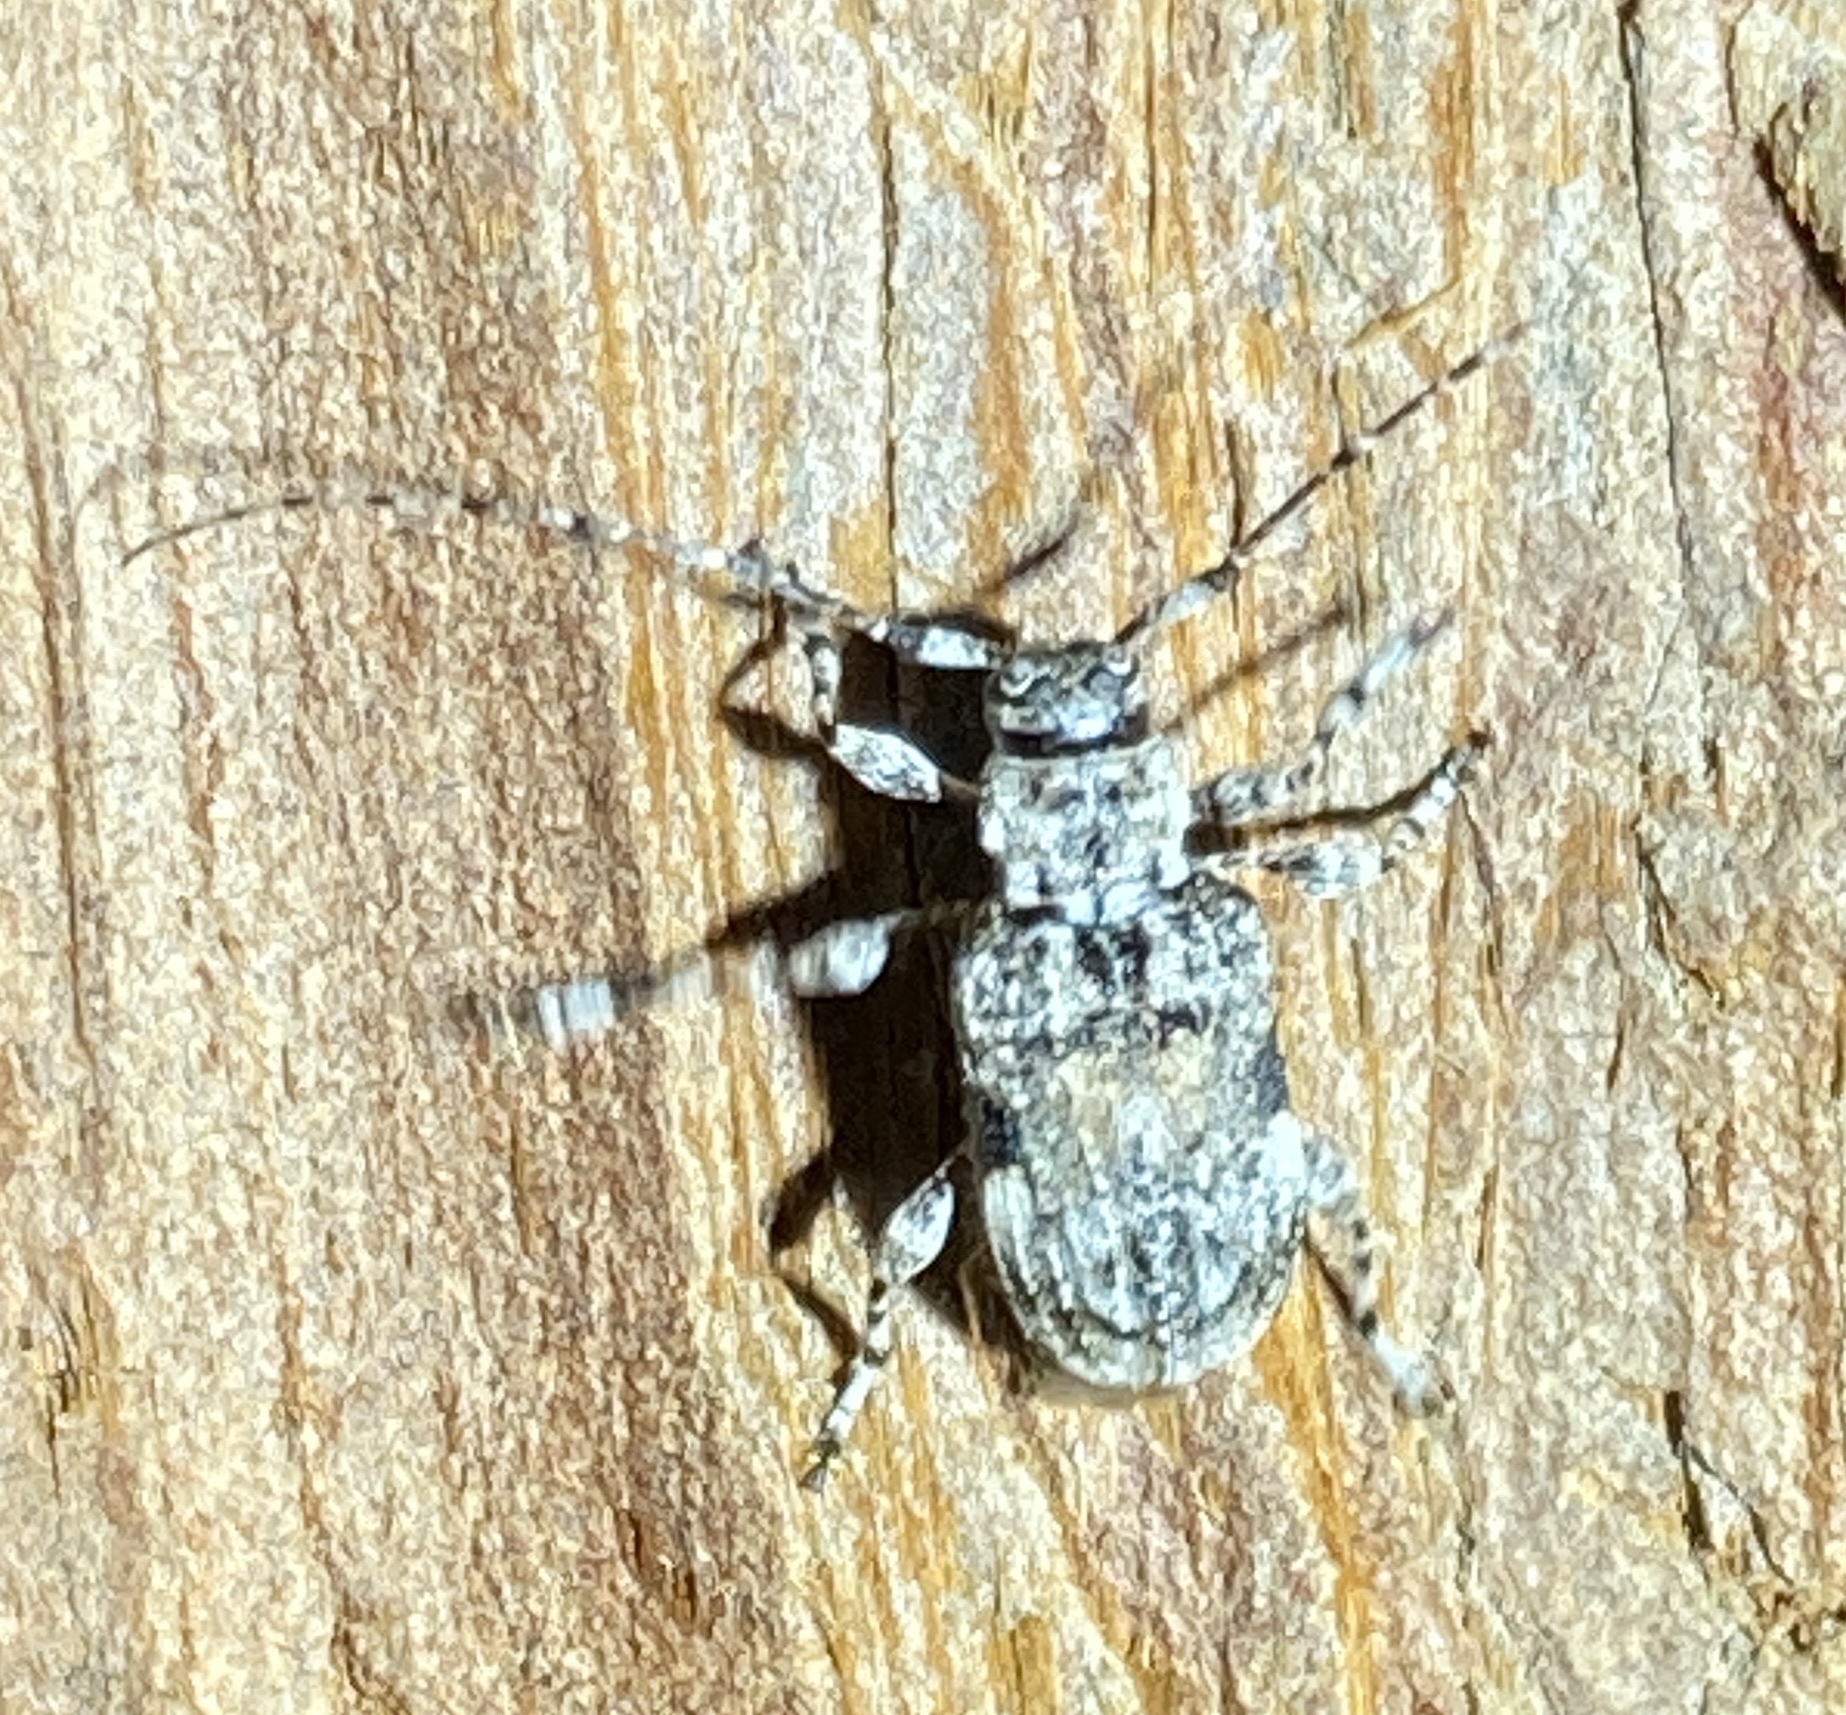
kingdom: Animalia
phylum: Arthropoda
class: Insecta
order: Coleoptera
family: Cerambycidae
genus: Pseudastylopsis
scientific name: Pseudastylopsis nebulosus
